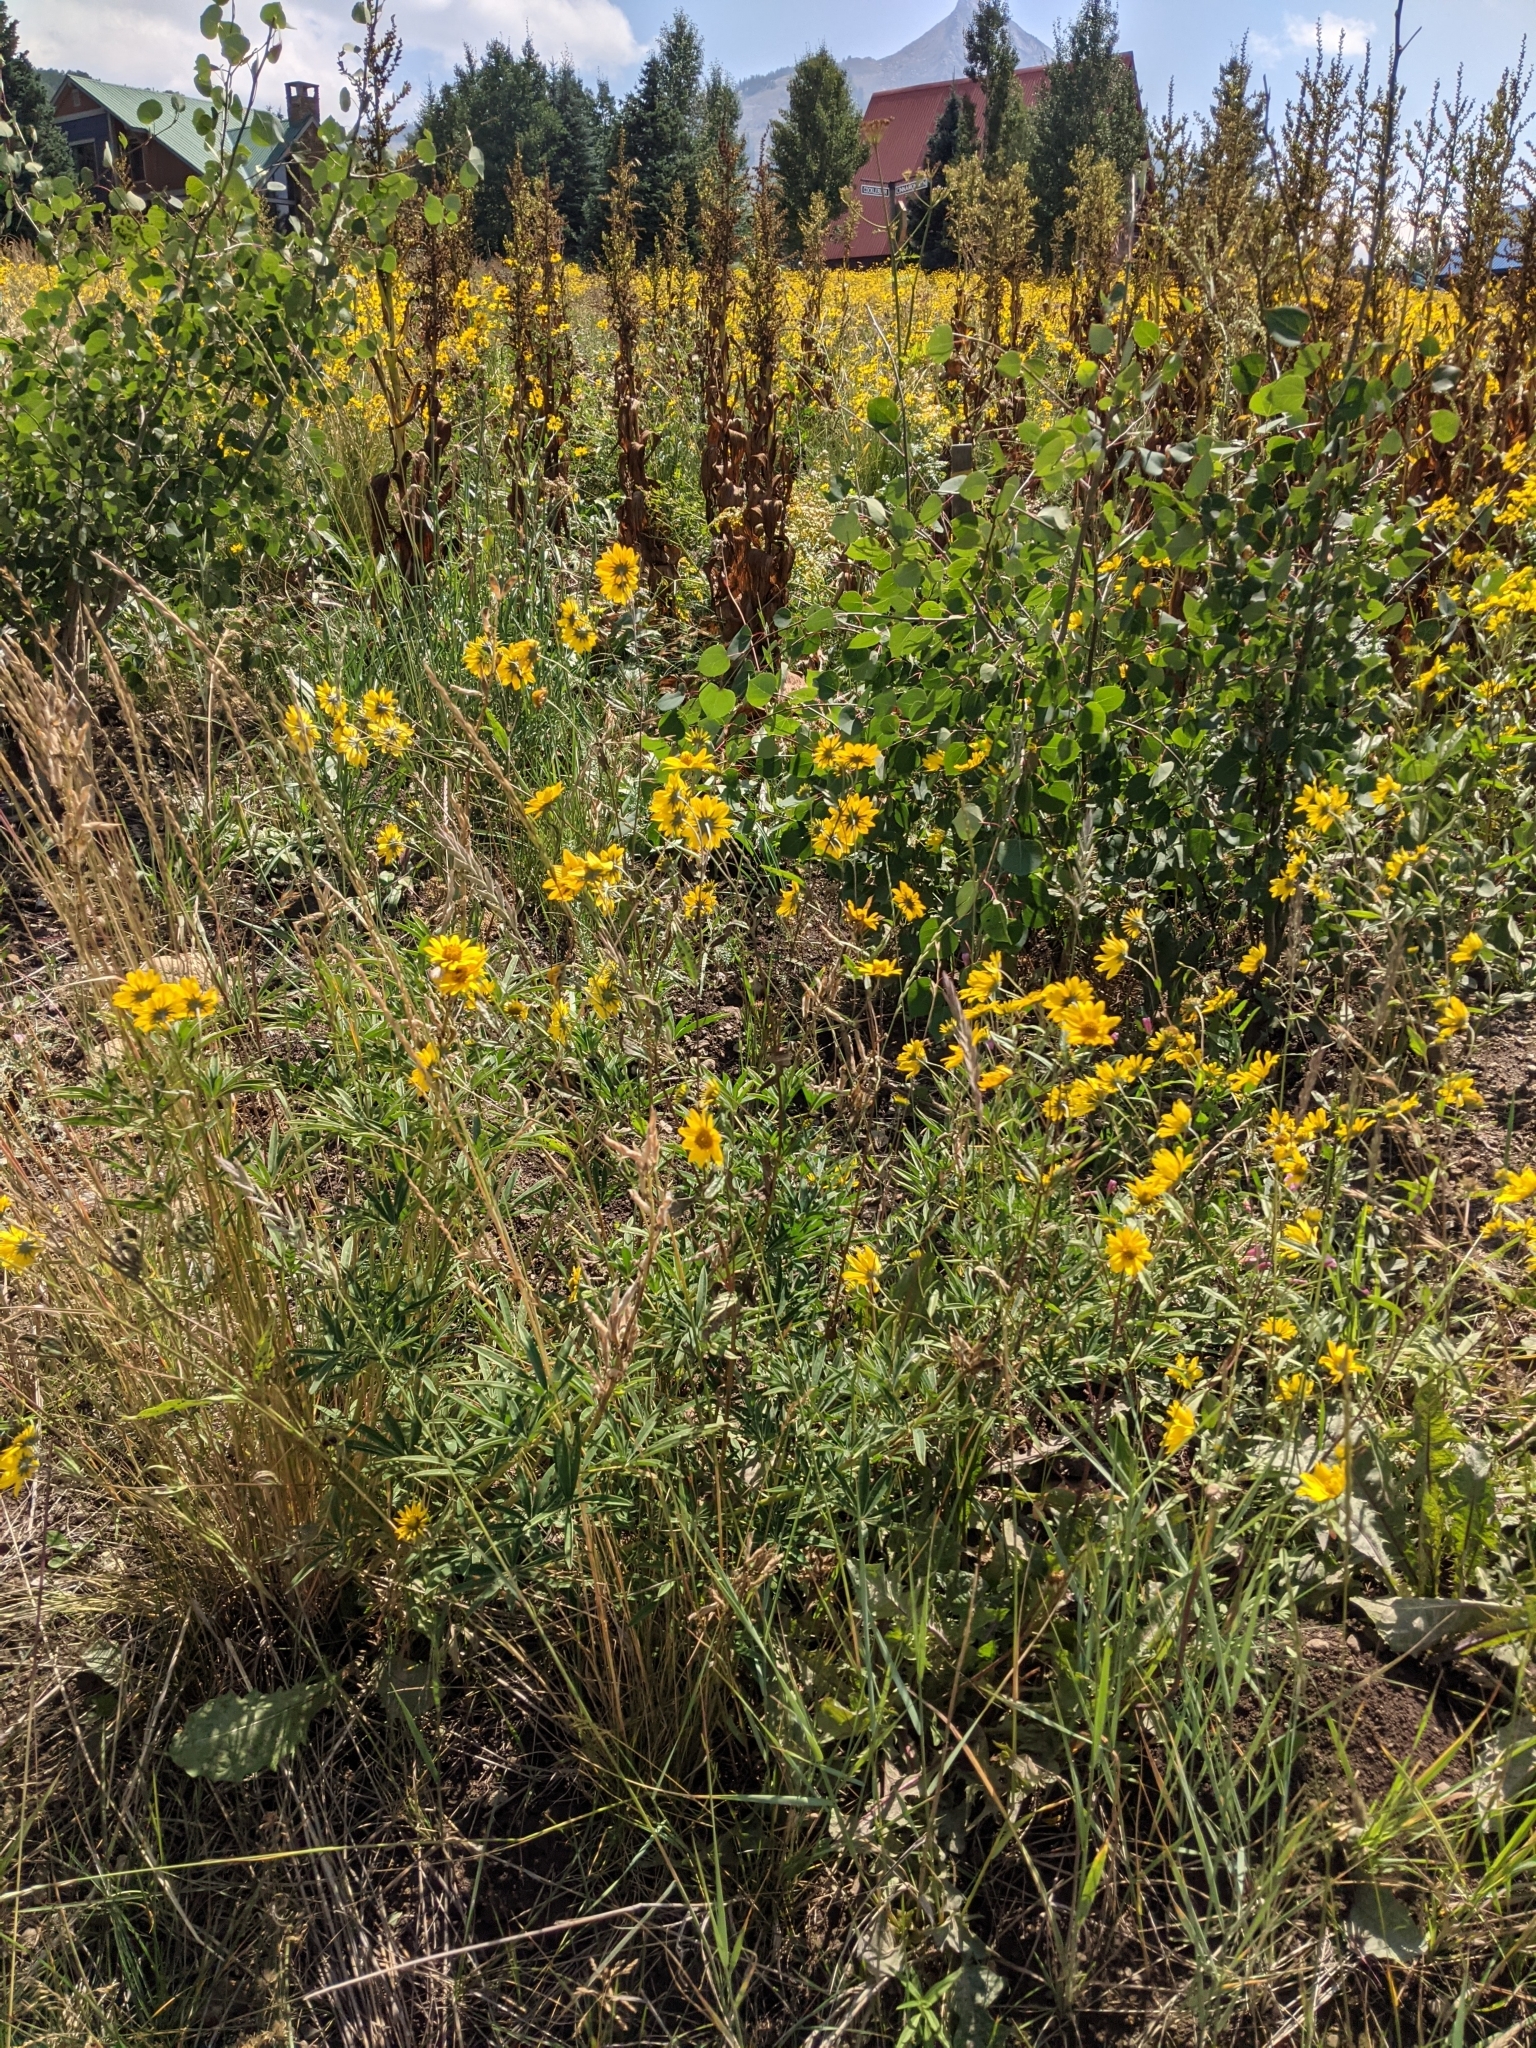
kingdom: Plantae
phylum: Tracheophyta
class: Magnoliopsida
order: Asterales
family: Asteraceae
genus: Heliomeris
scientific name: Heliomeris multiflora
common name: Showy goldeneye
